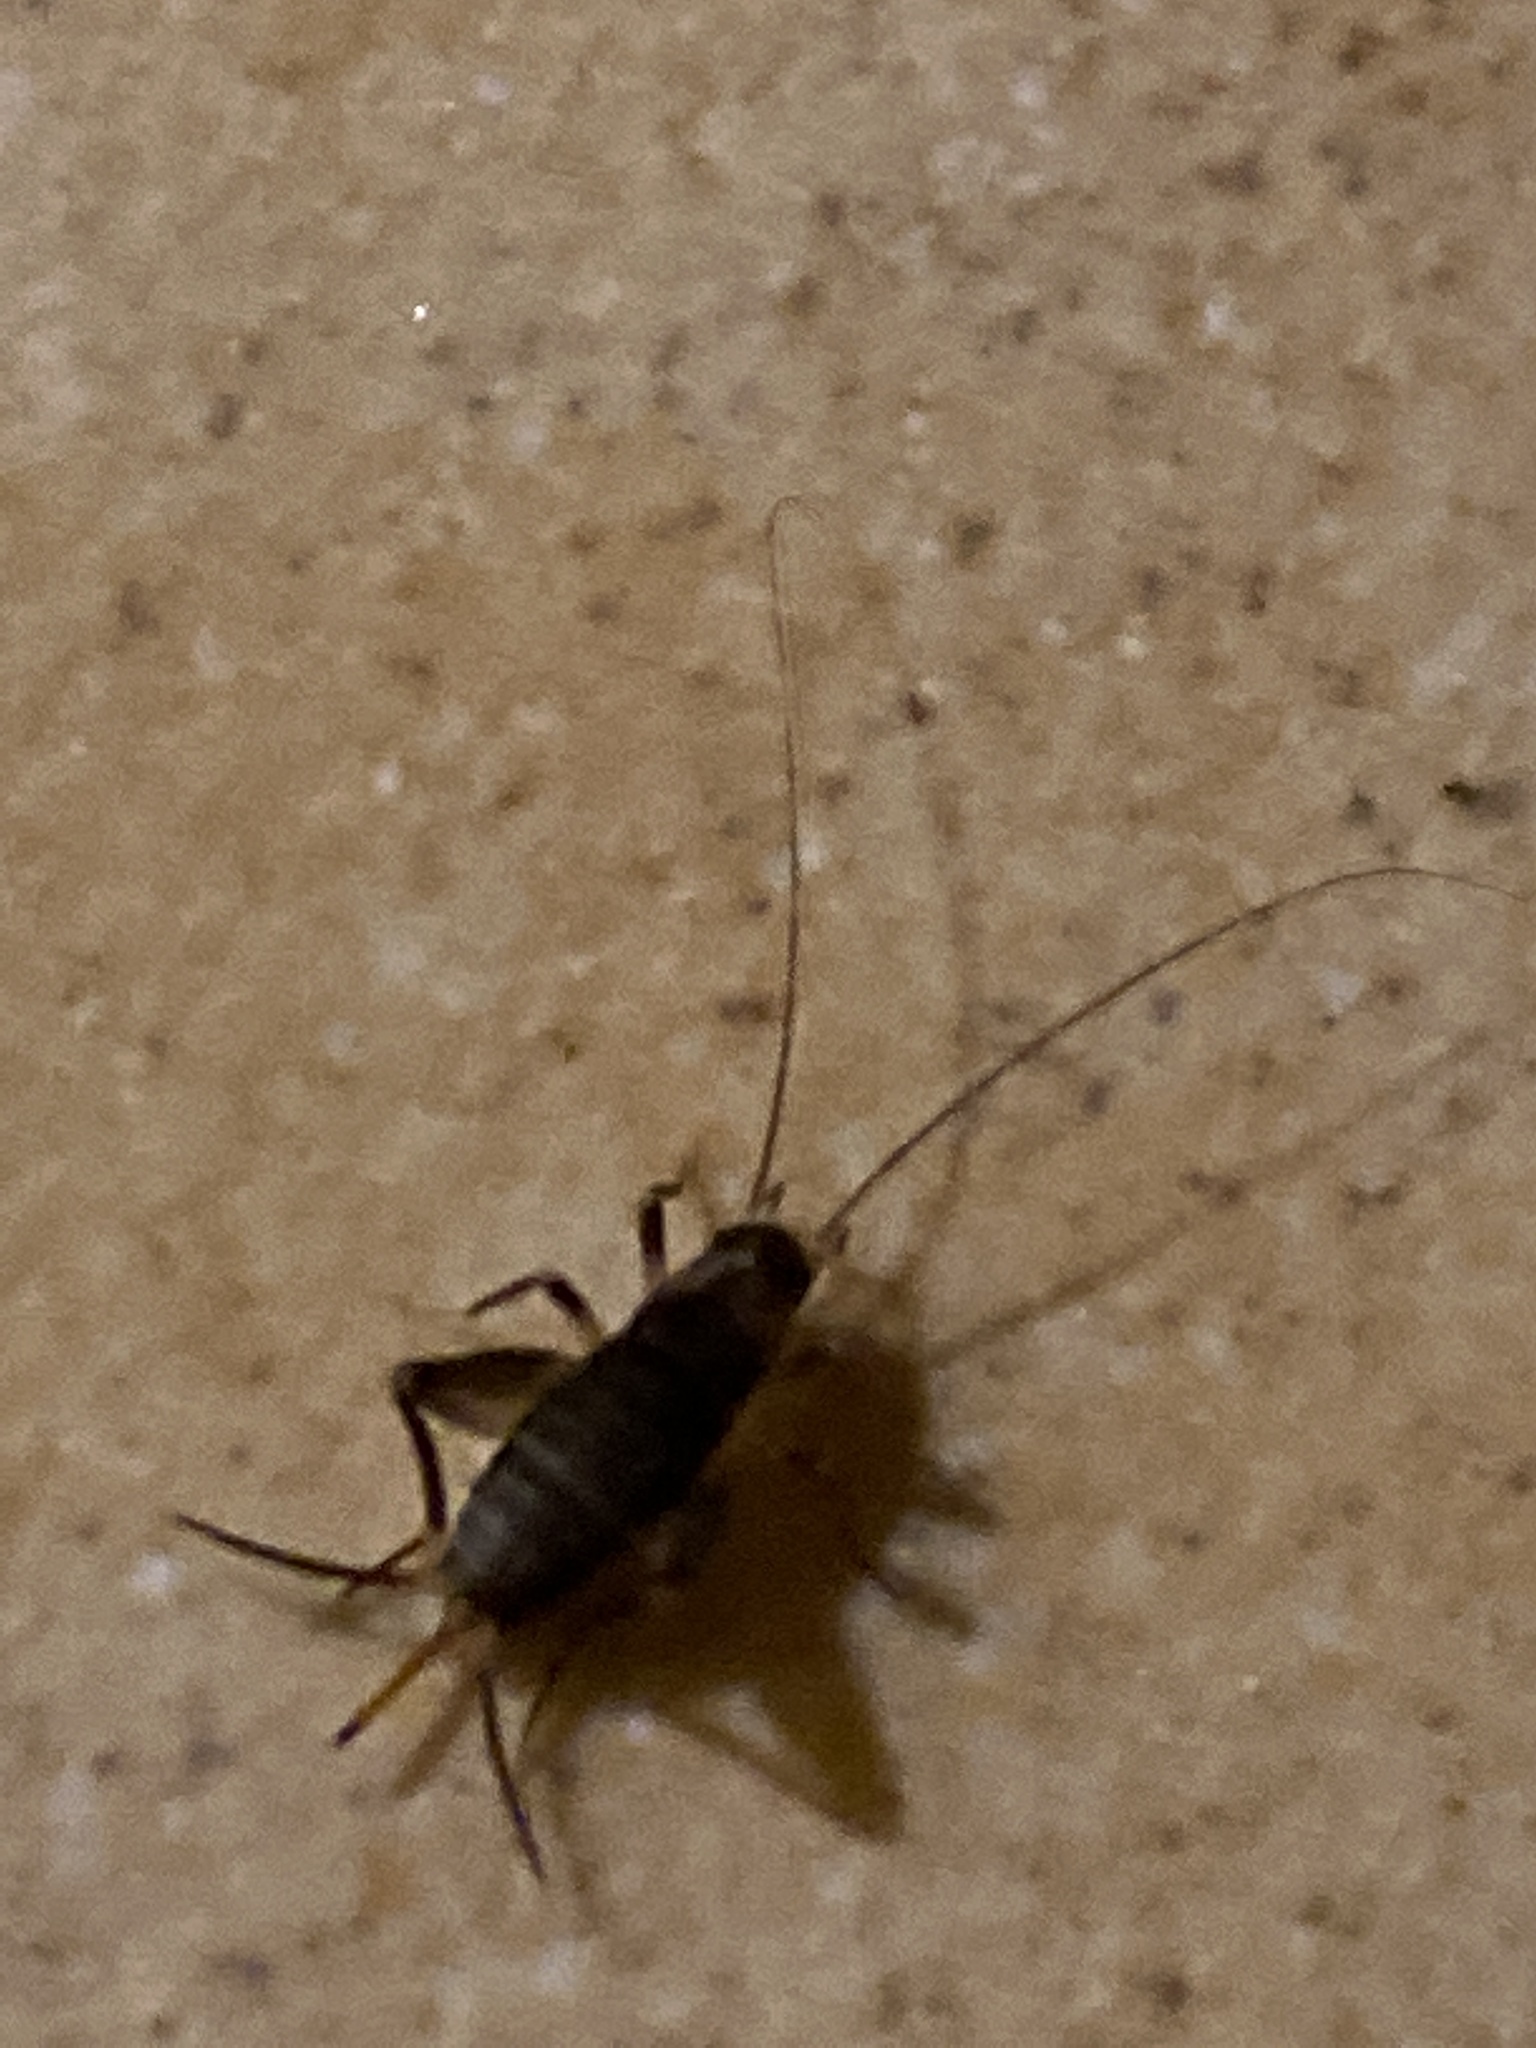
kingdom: Animalia
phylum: Arthropoda
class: Insecta
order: Orthoptera
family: Mogoplistidae
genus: Cycloptiloides
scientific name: Cycloptiloides canariensis
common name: Canarian tiny cricket
